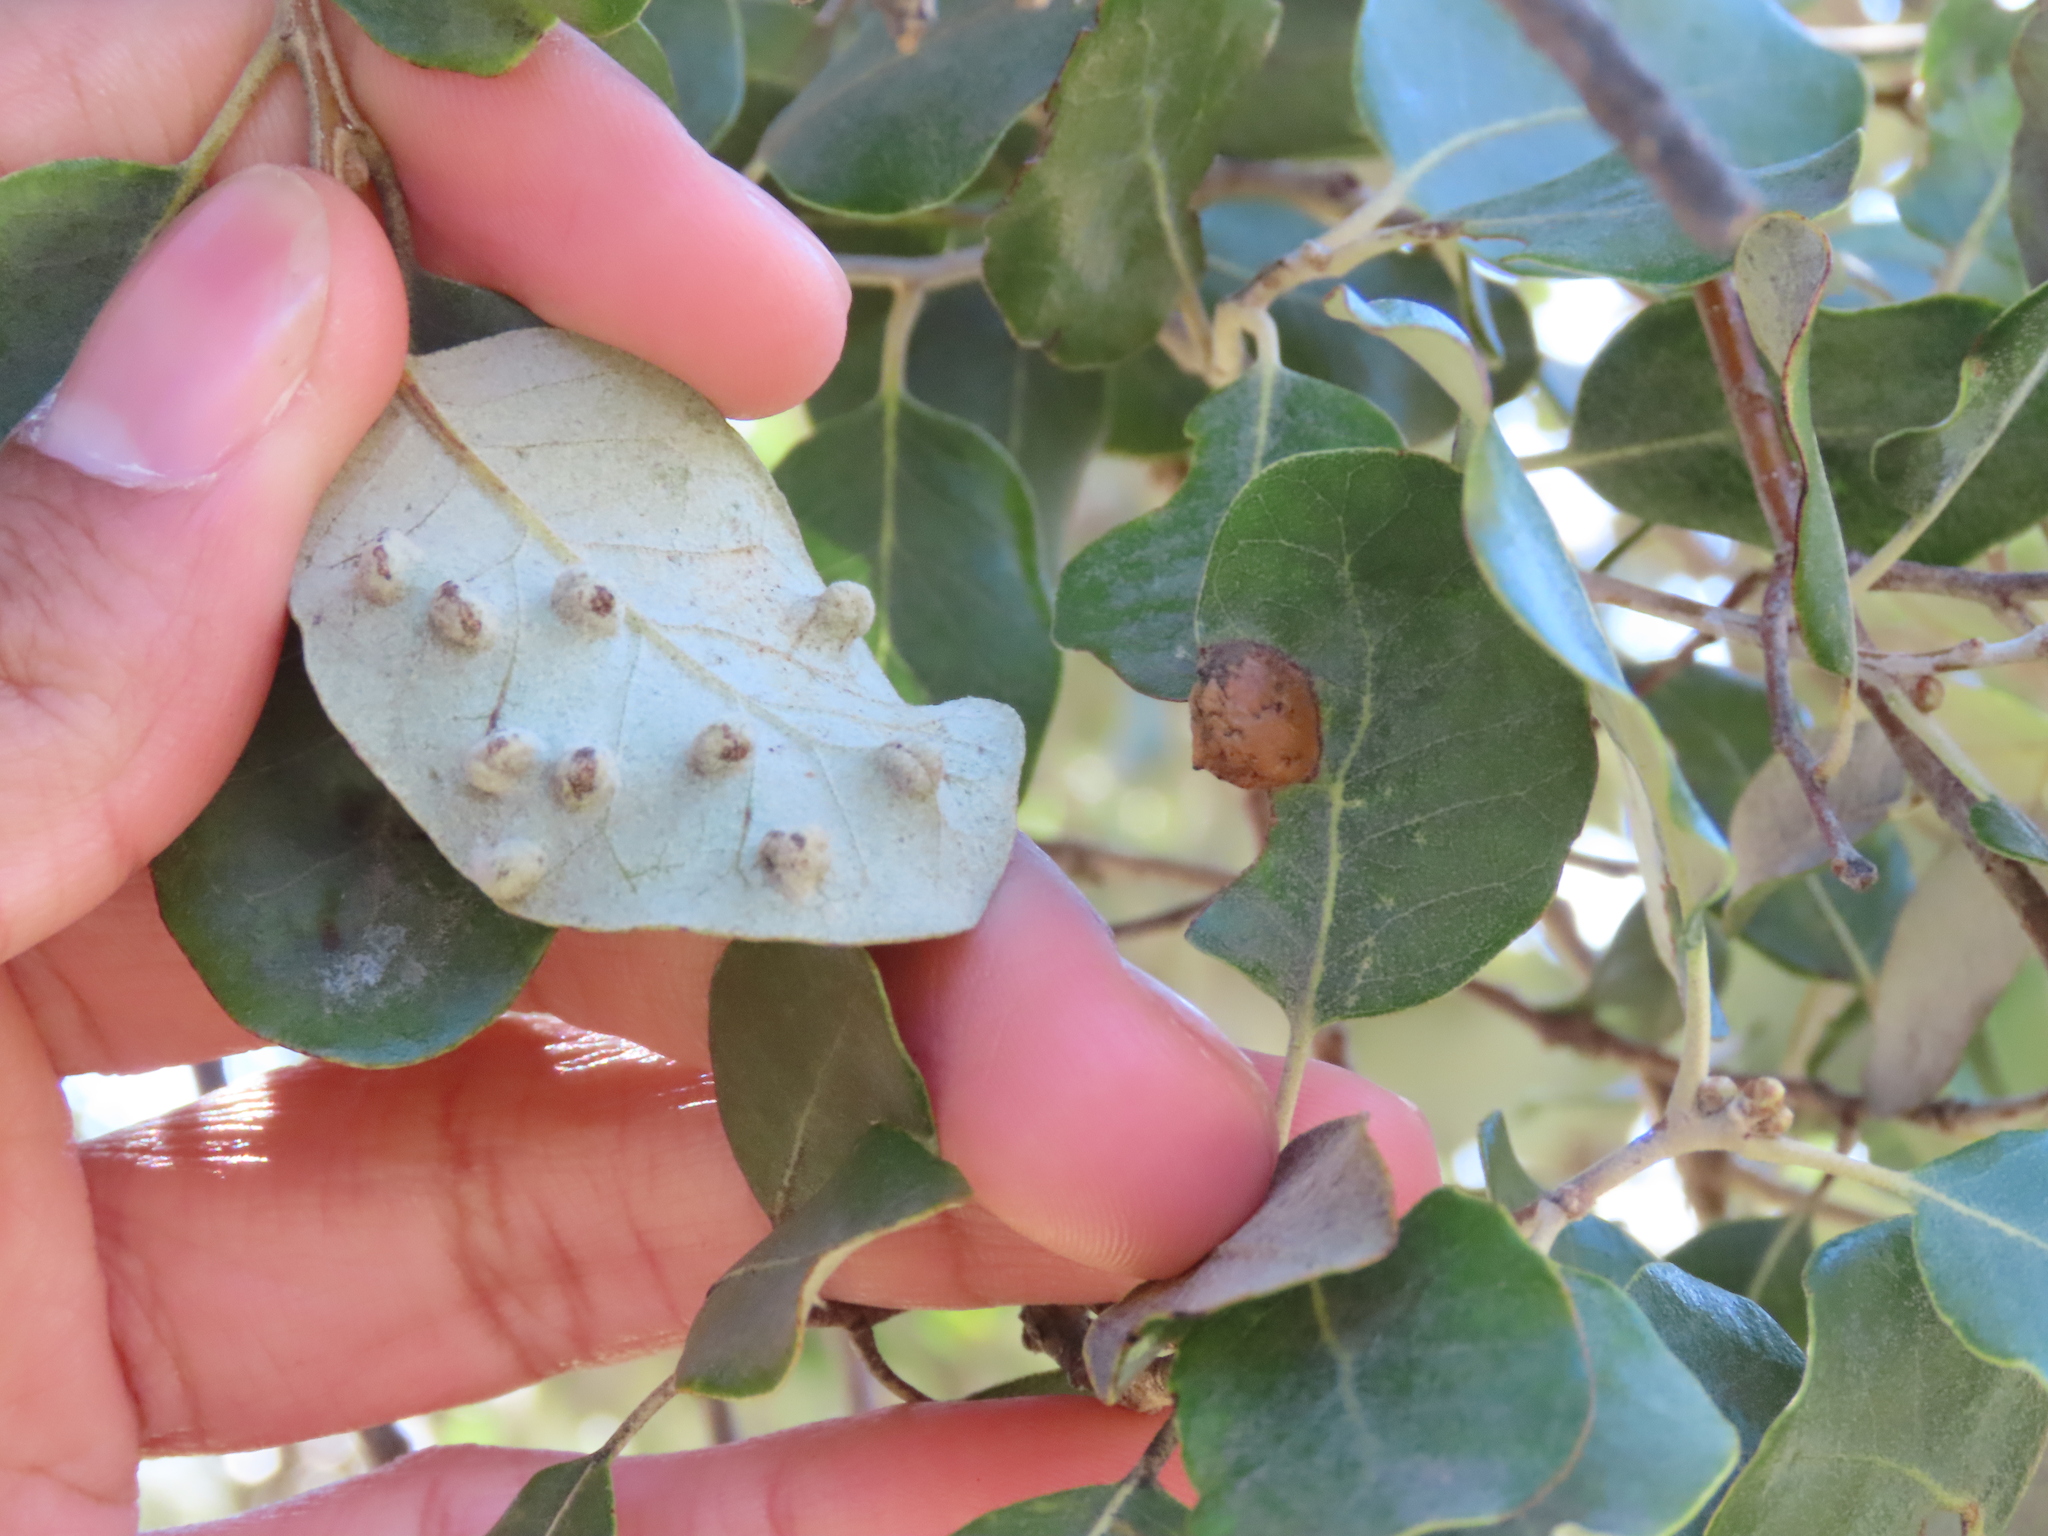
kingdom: Animalia
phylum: Arthropoda
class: Insecta
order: Diptera
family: Cecidomyiidae
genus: Dryomyia
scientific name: Dryomyia lichtensteinii
